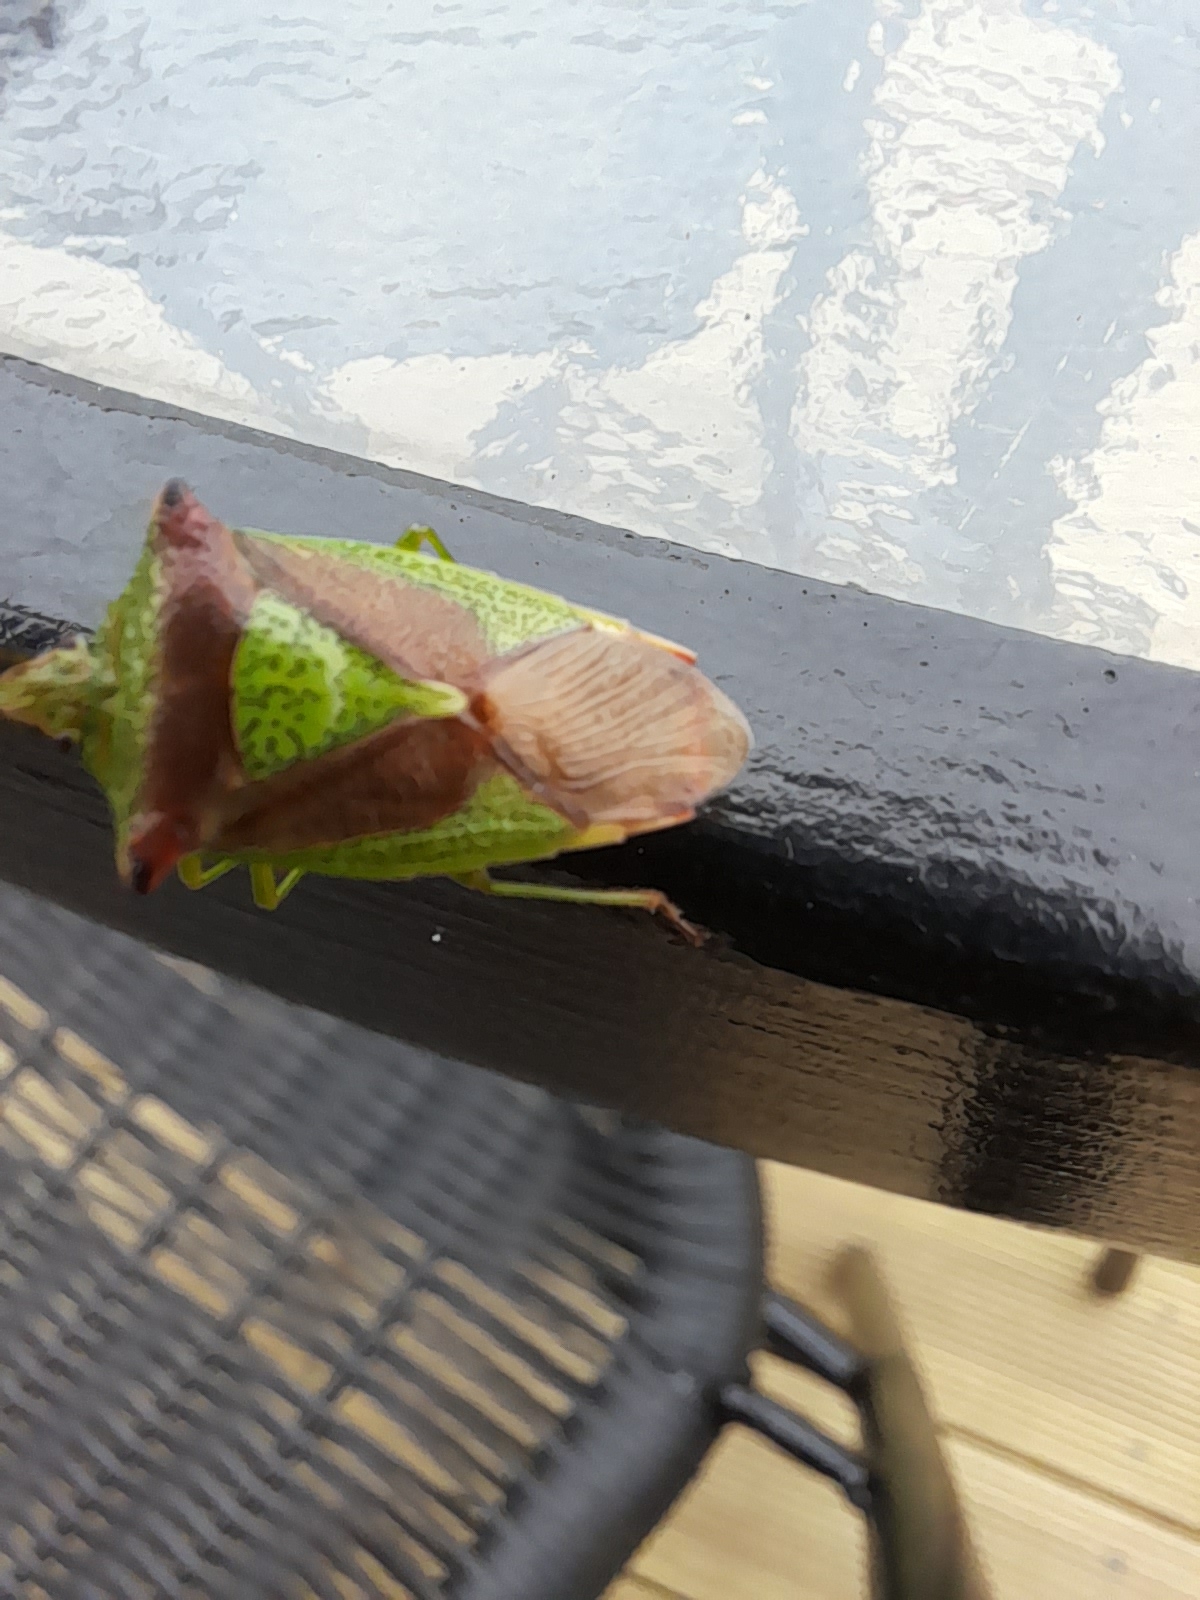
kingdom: Animalia
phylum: Arthropoda
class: Insecta
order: Hemiptera
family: Acanthosomatidae
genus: Acanthosoma
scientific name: Acanthosoma haemorrhoidale
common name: Hawthorn shieldbug
